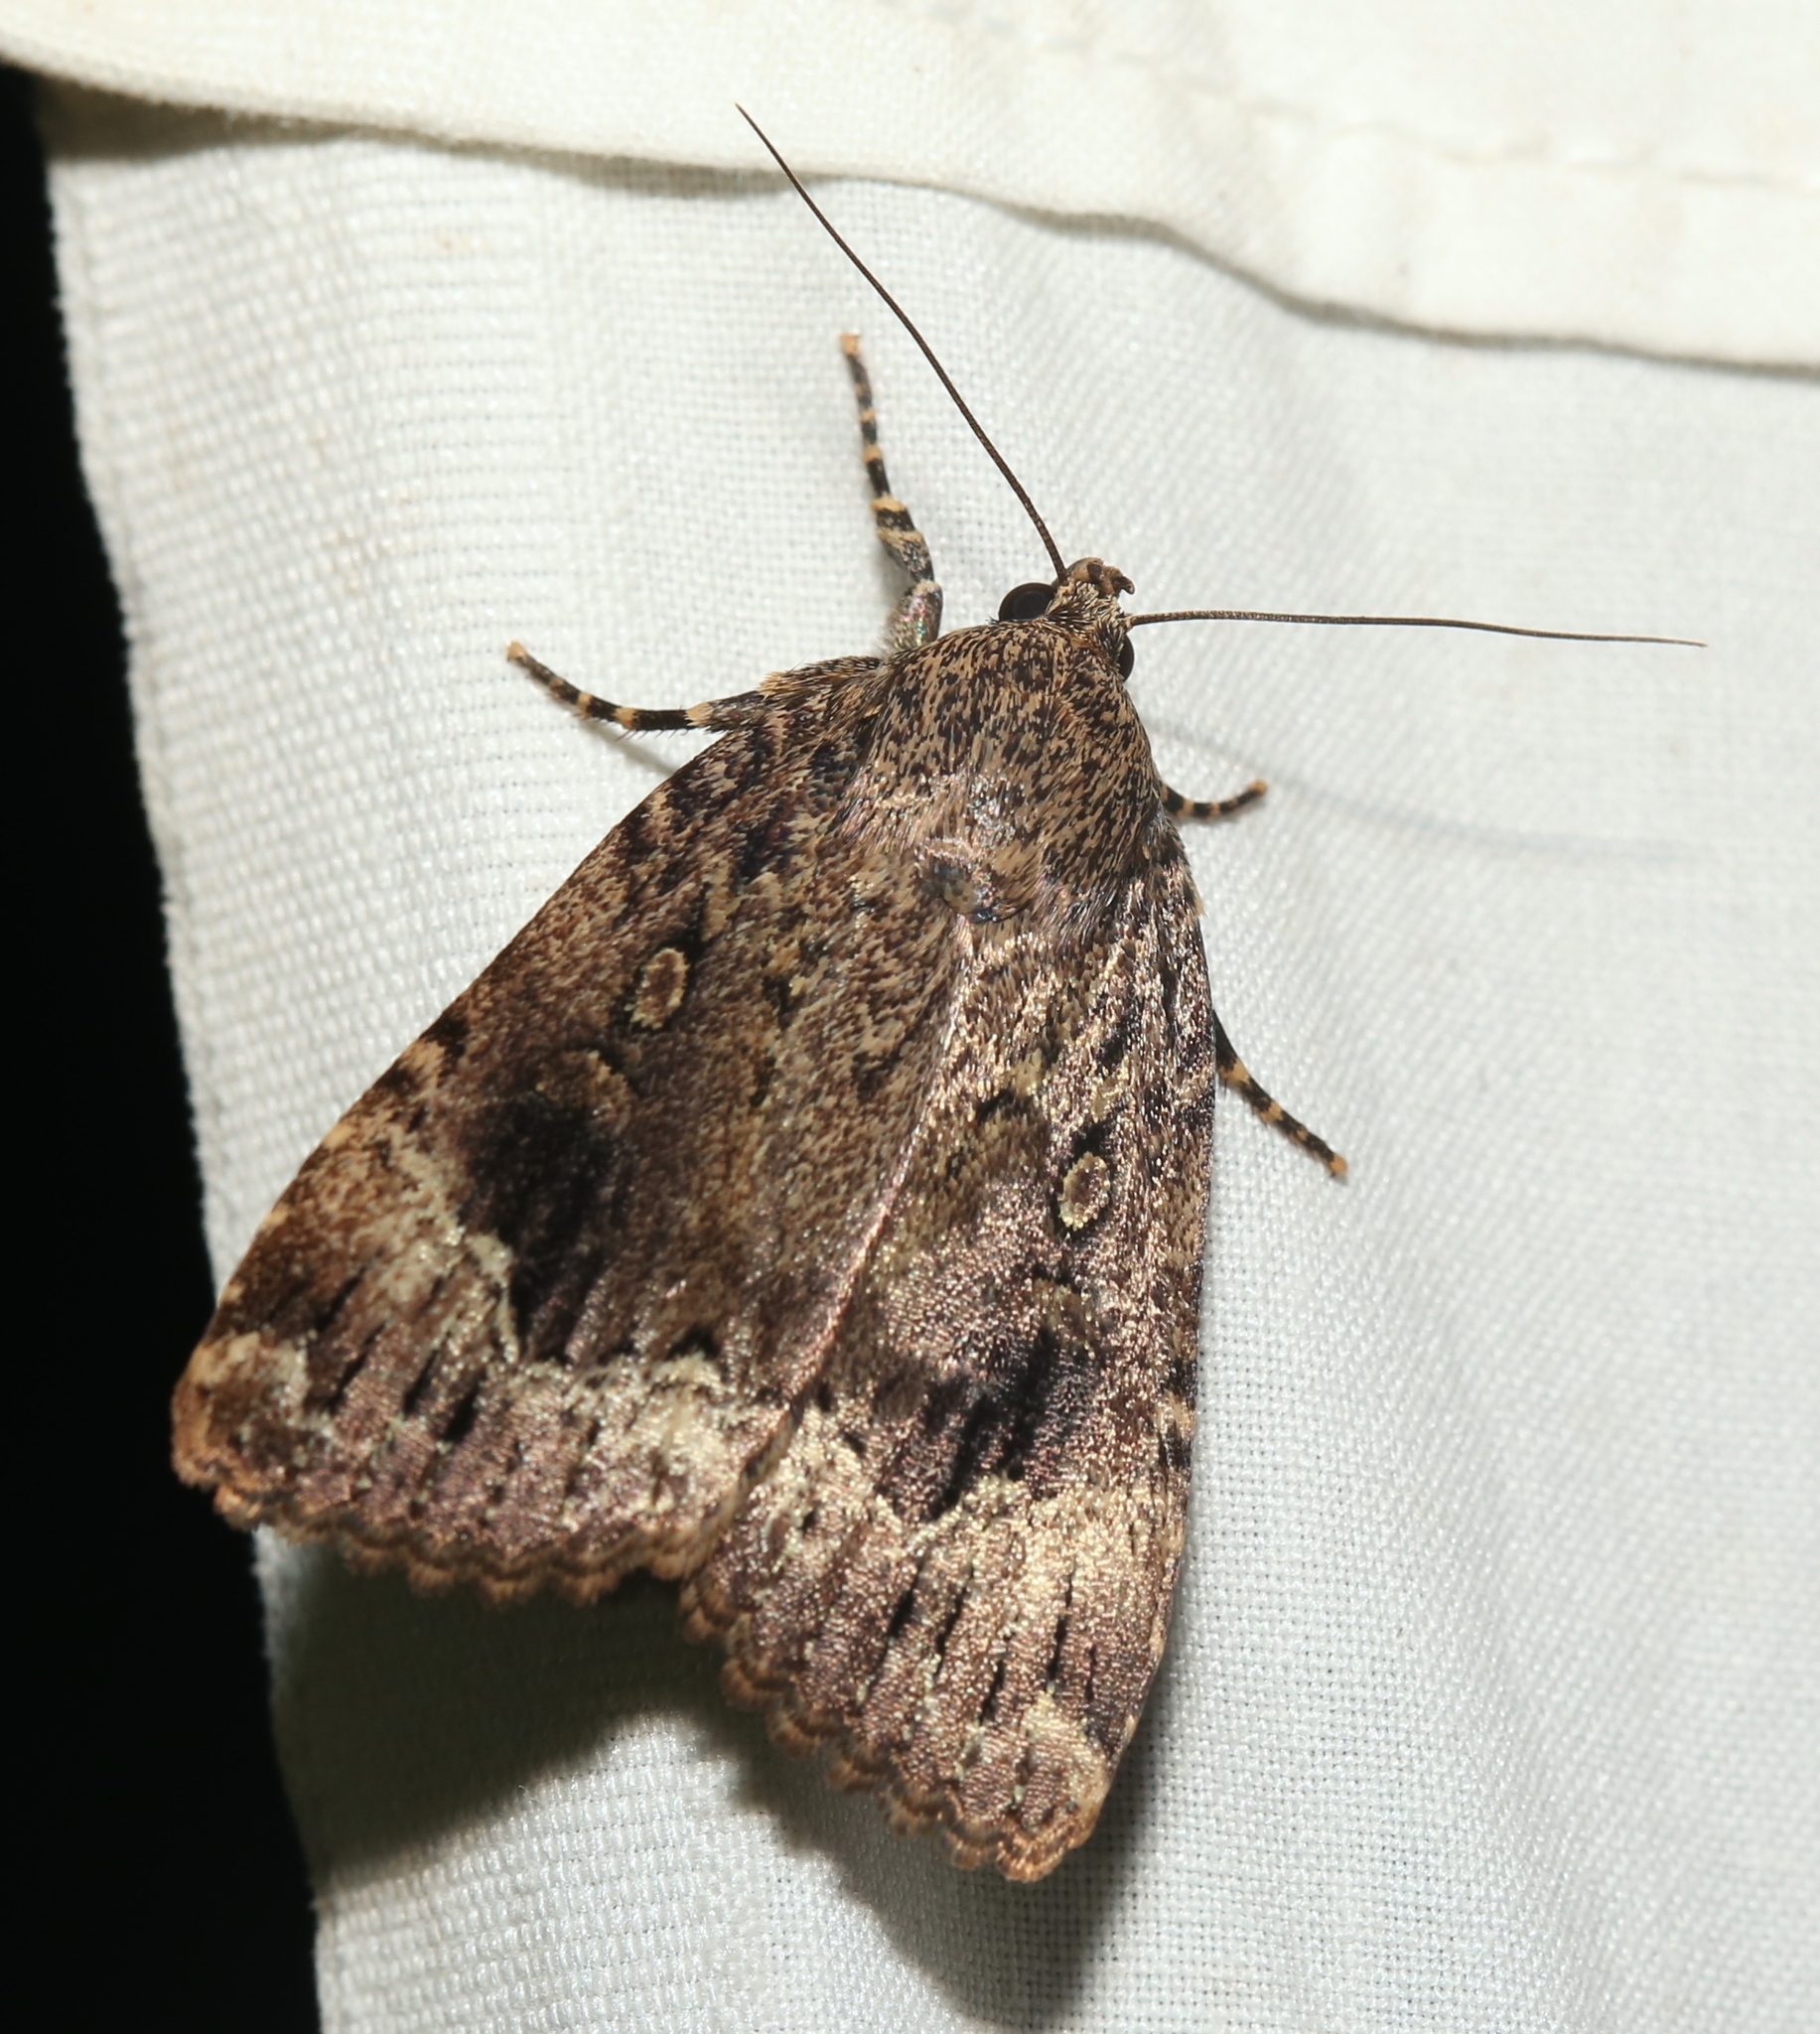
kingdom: Animalia
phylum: Arthropoda
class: Insecta
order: Lepidoptera
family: Noctuidae
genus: Amphipyra
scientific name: Amphipyra pyramidoides
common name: American copper underwing
